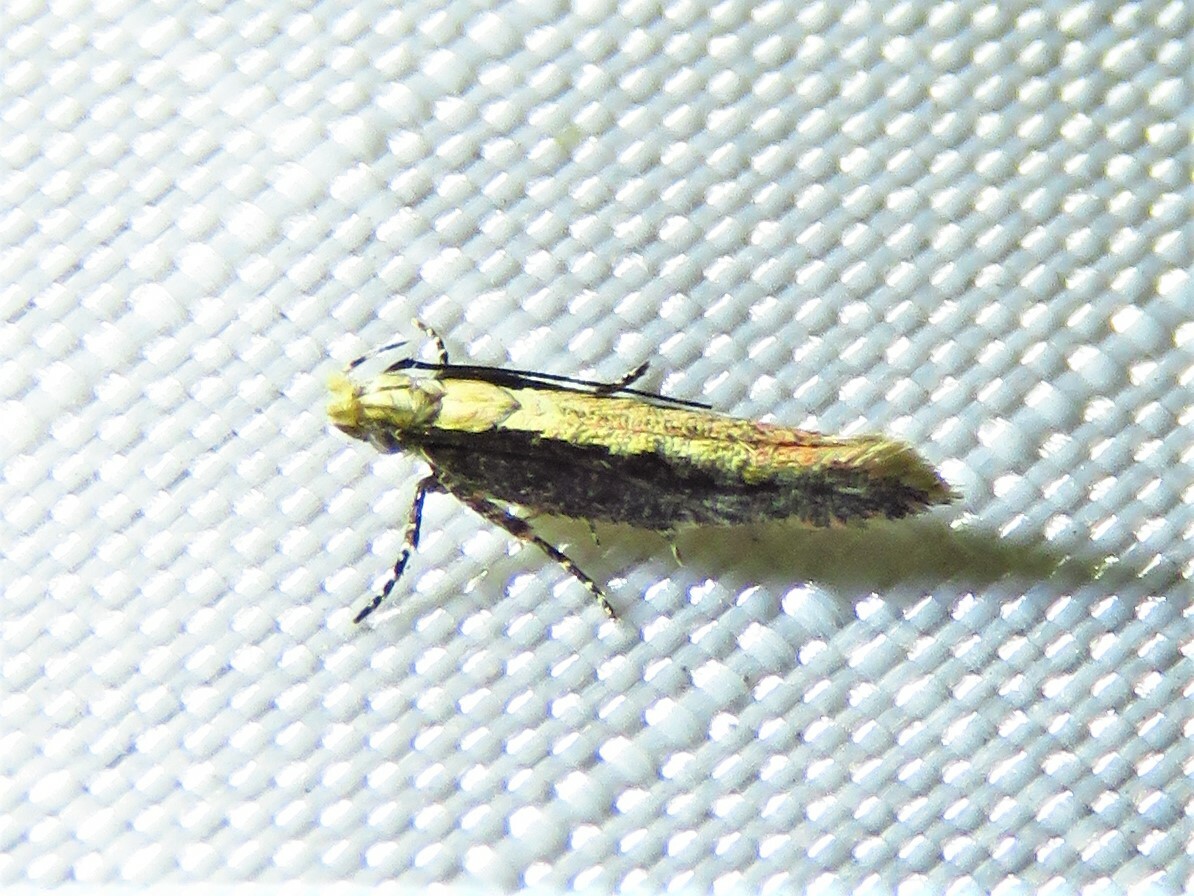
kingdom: Animalia
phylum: Arthropoda
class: Insecta
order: Lepidoptera
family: Gelechiidae
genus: Aristotelia
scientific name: Aristotelia corallina
